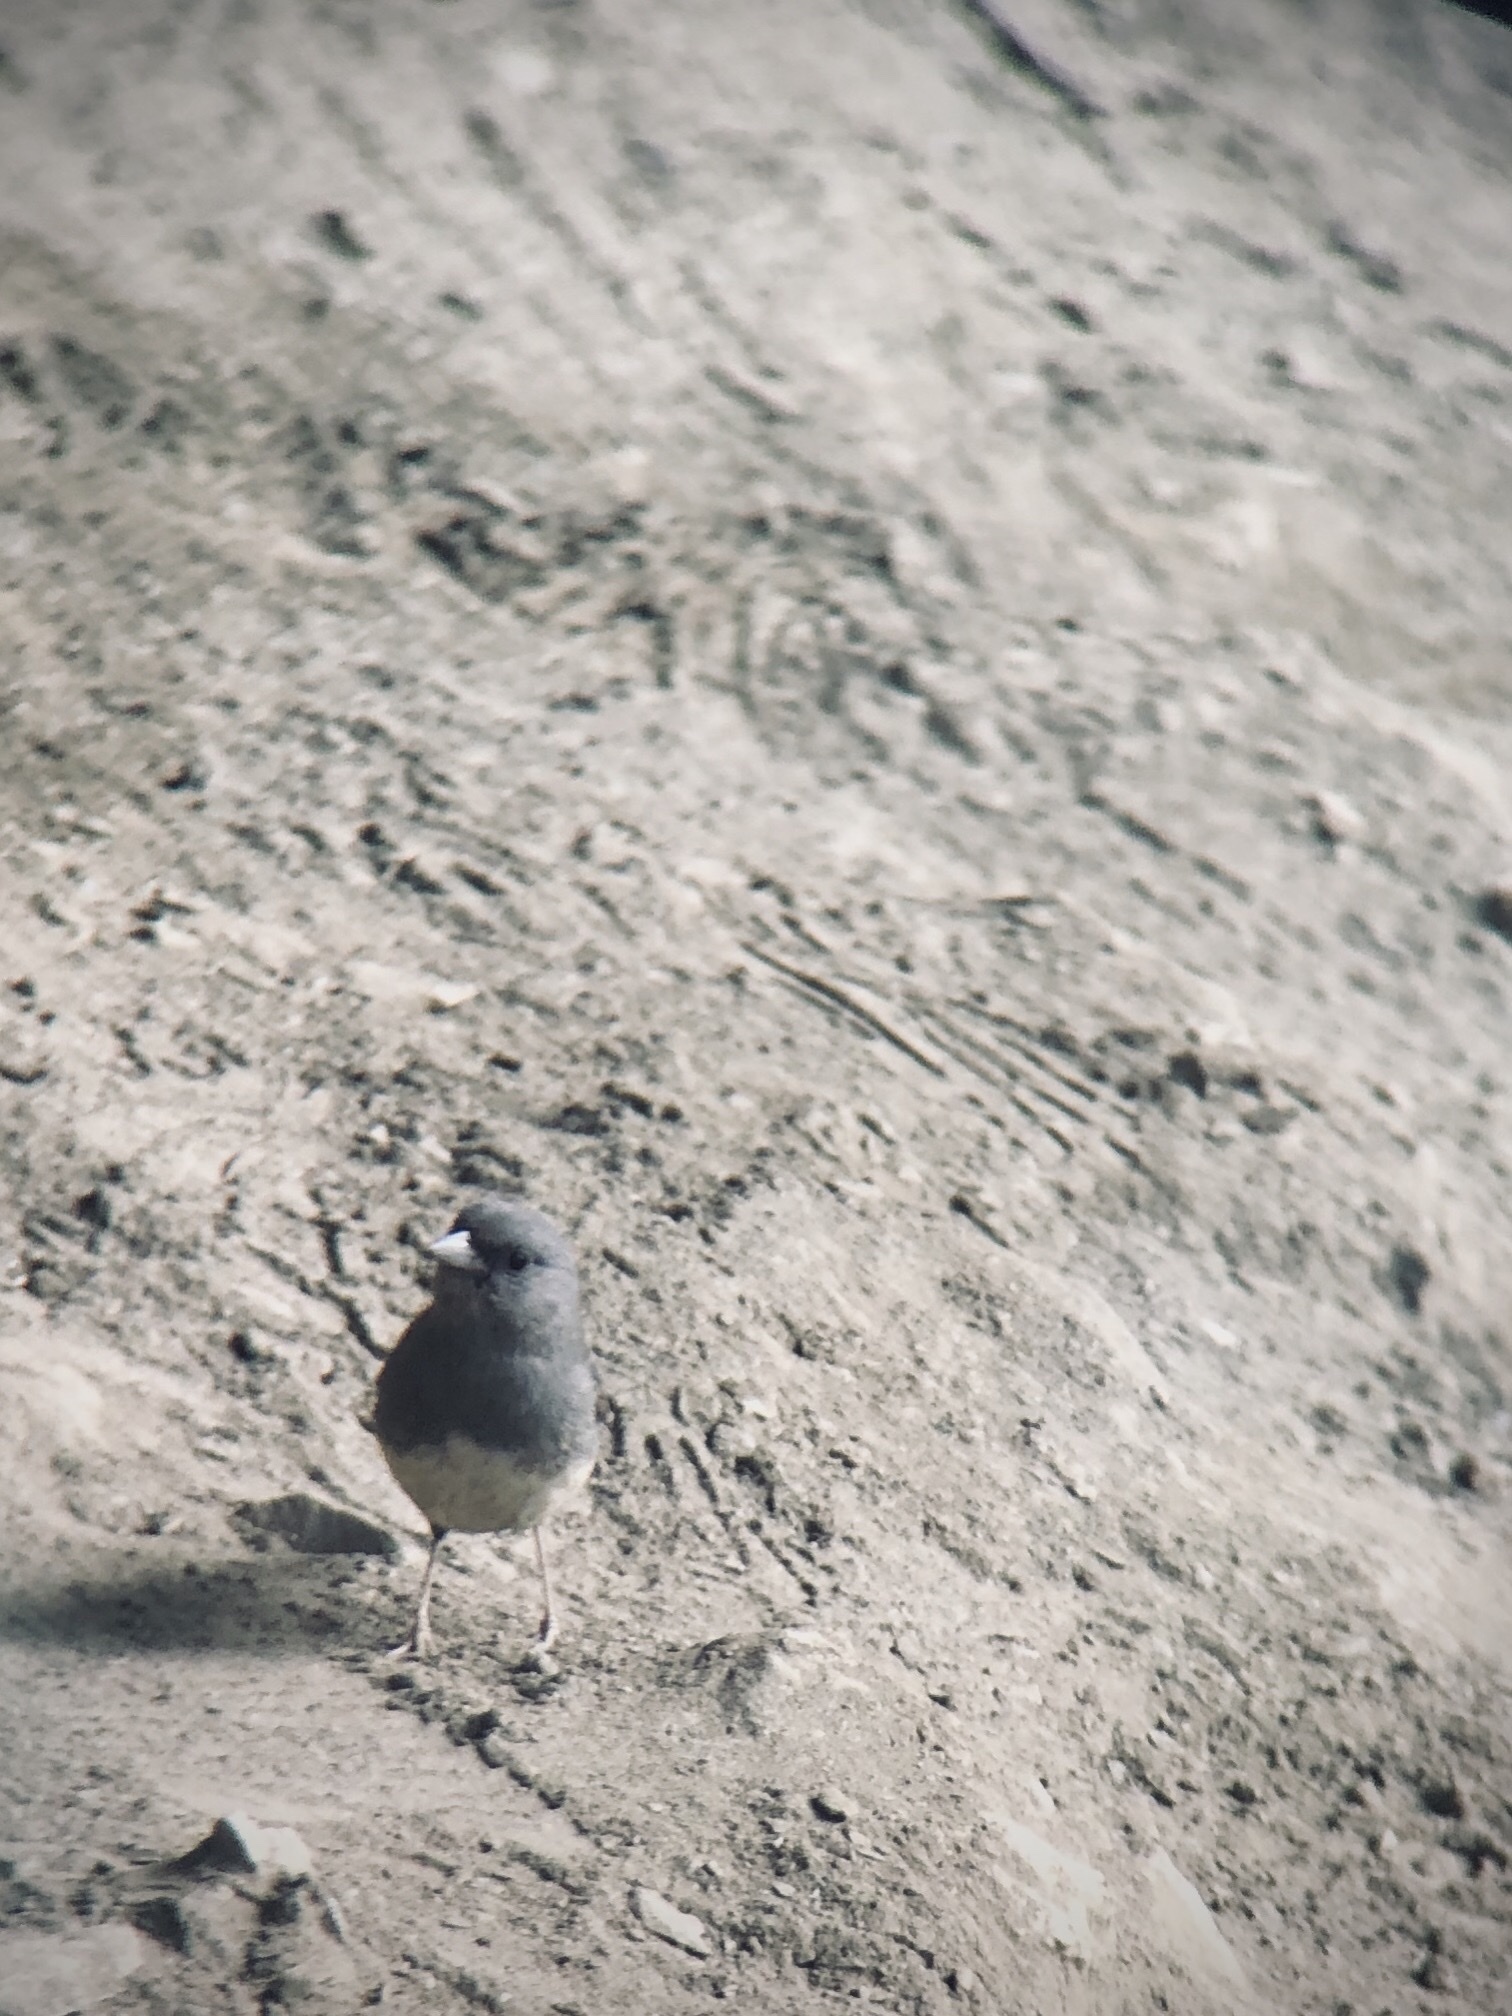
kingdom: Animalia
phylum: Chordata
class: Aves
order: Passeriformes
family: Passerellidae
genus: Junco
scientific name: Junco hyemalis
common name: Dark-eyed junco
